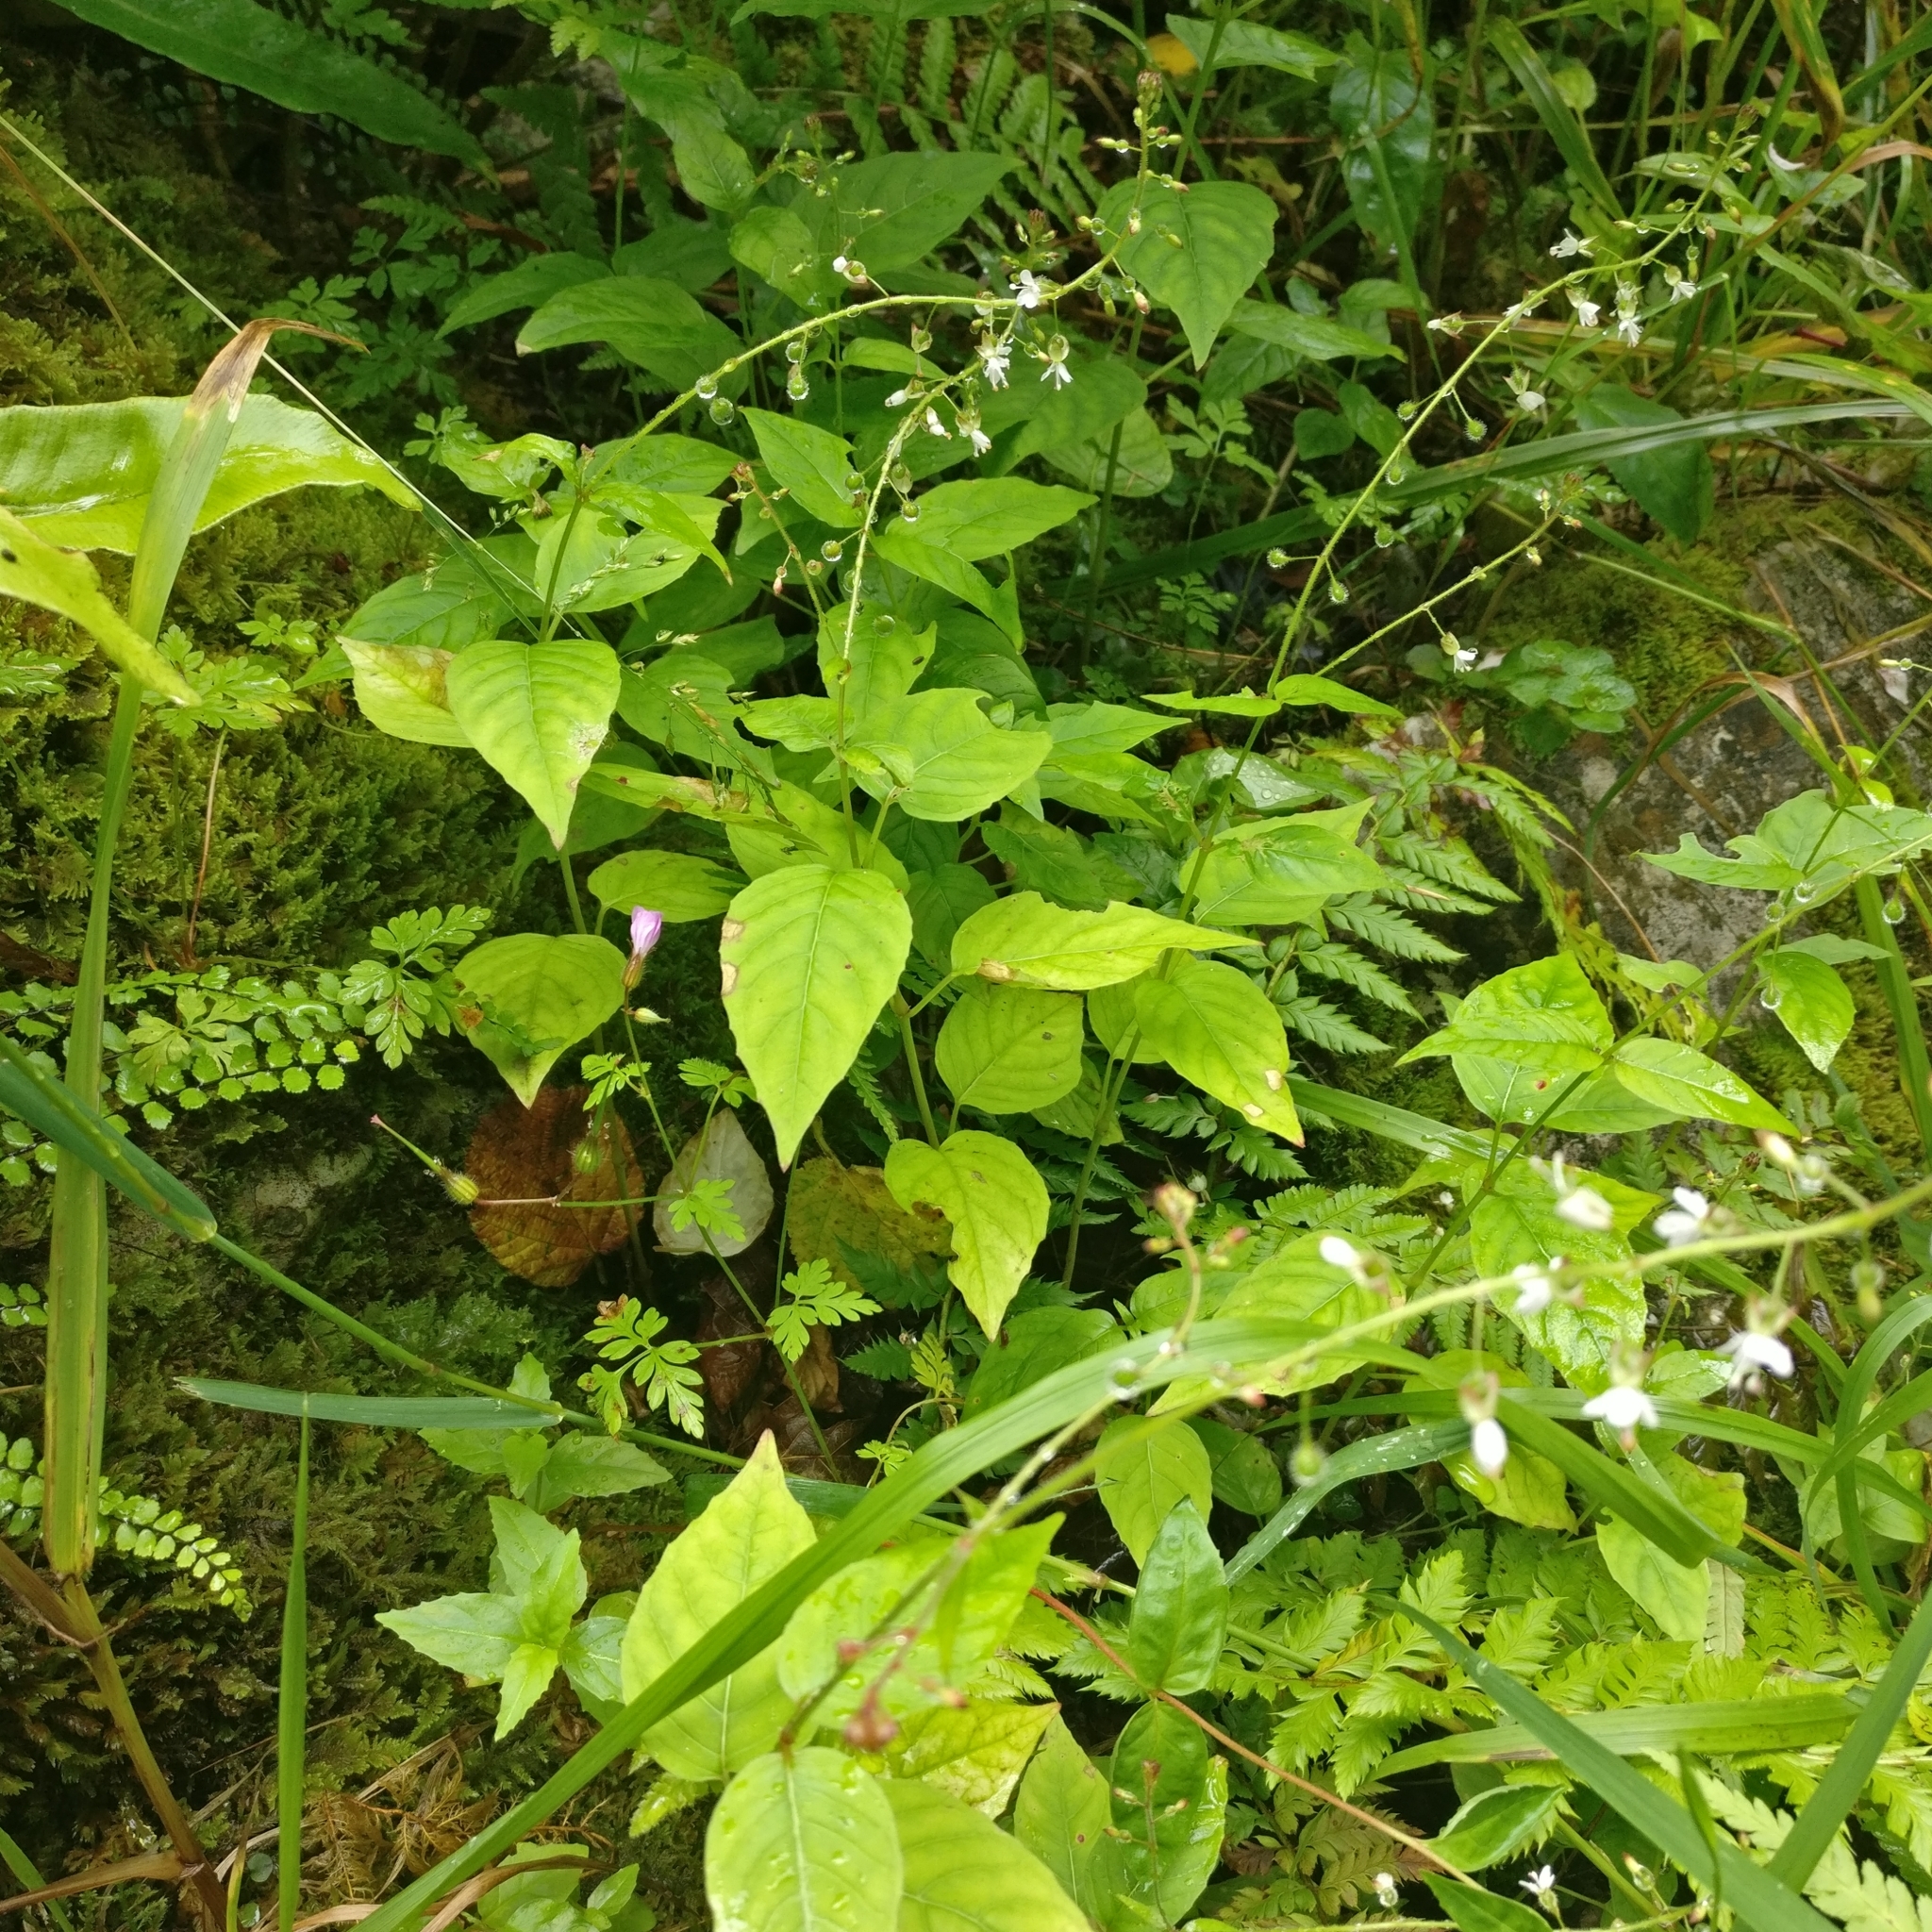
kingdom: Plantae
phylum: Tracheophyta
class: Magnoliopsida
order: Myrtales
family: Onagraceae
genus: Circaea
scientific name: Circaea lutetiana
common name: Enchanter's-nightshade
